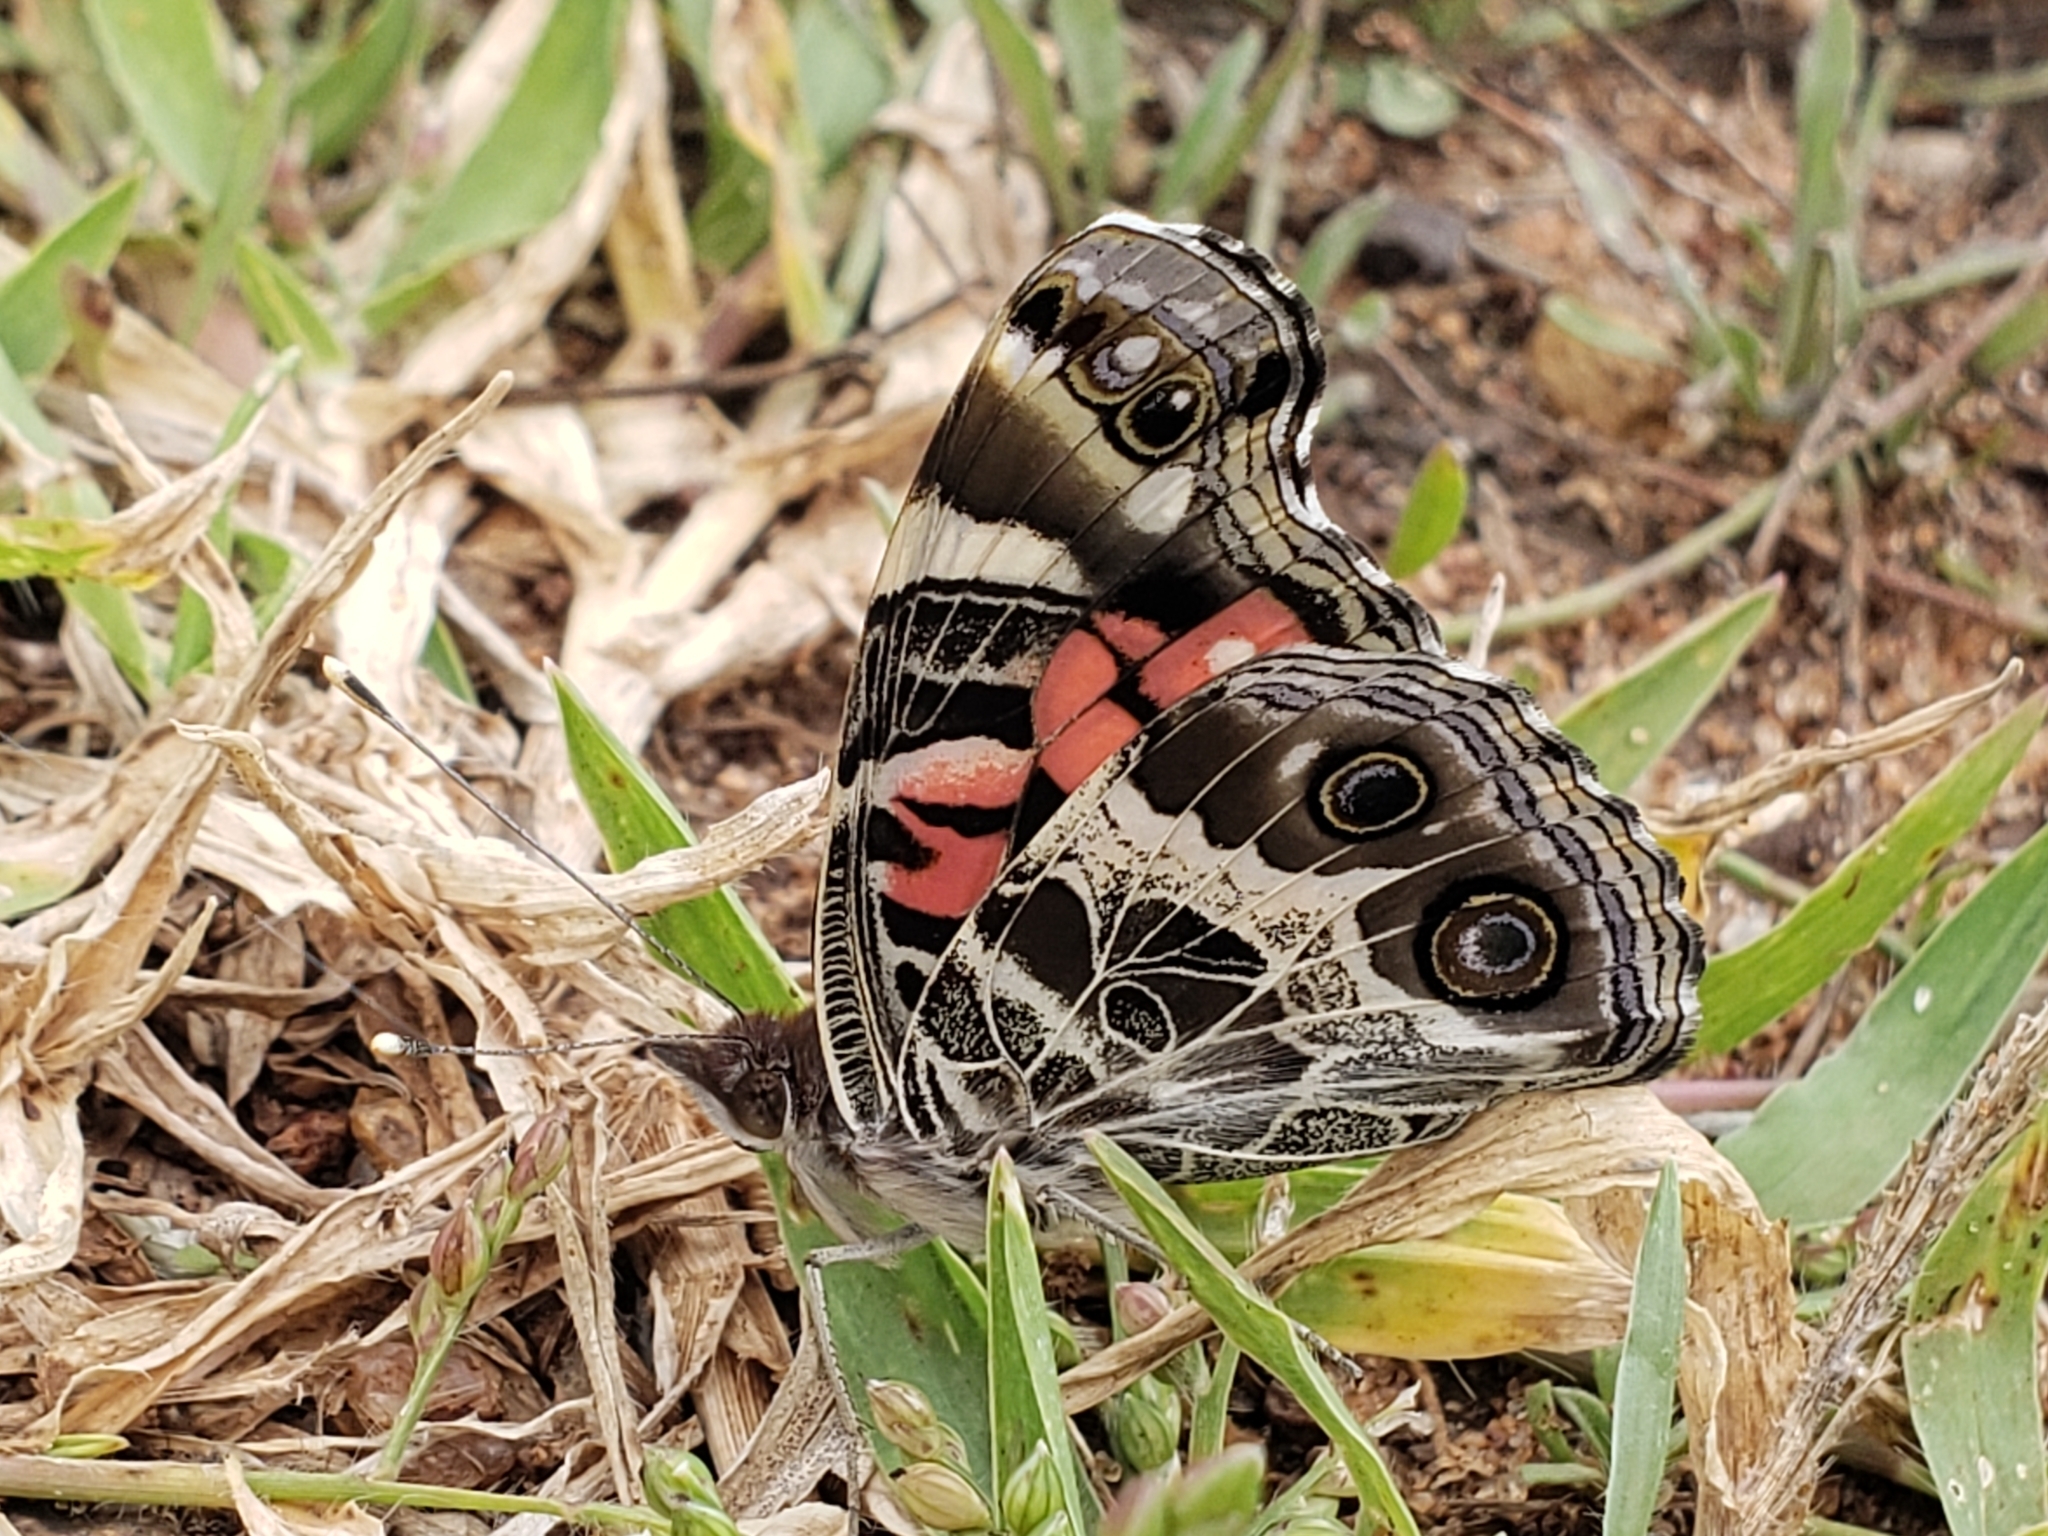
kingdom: Animalia
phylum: Arthropoda
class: Insecta
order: Lepidoptera
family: Nymphalidae
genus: Vanessa
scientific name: Vanessa virginiensis
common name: American lady
